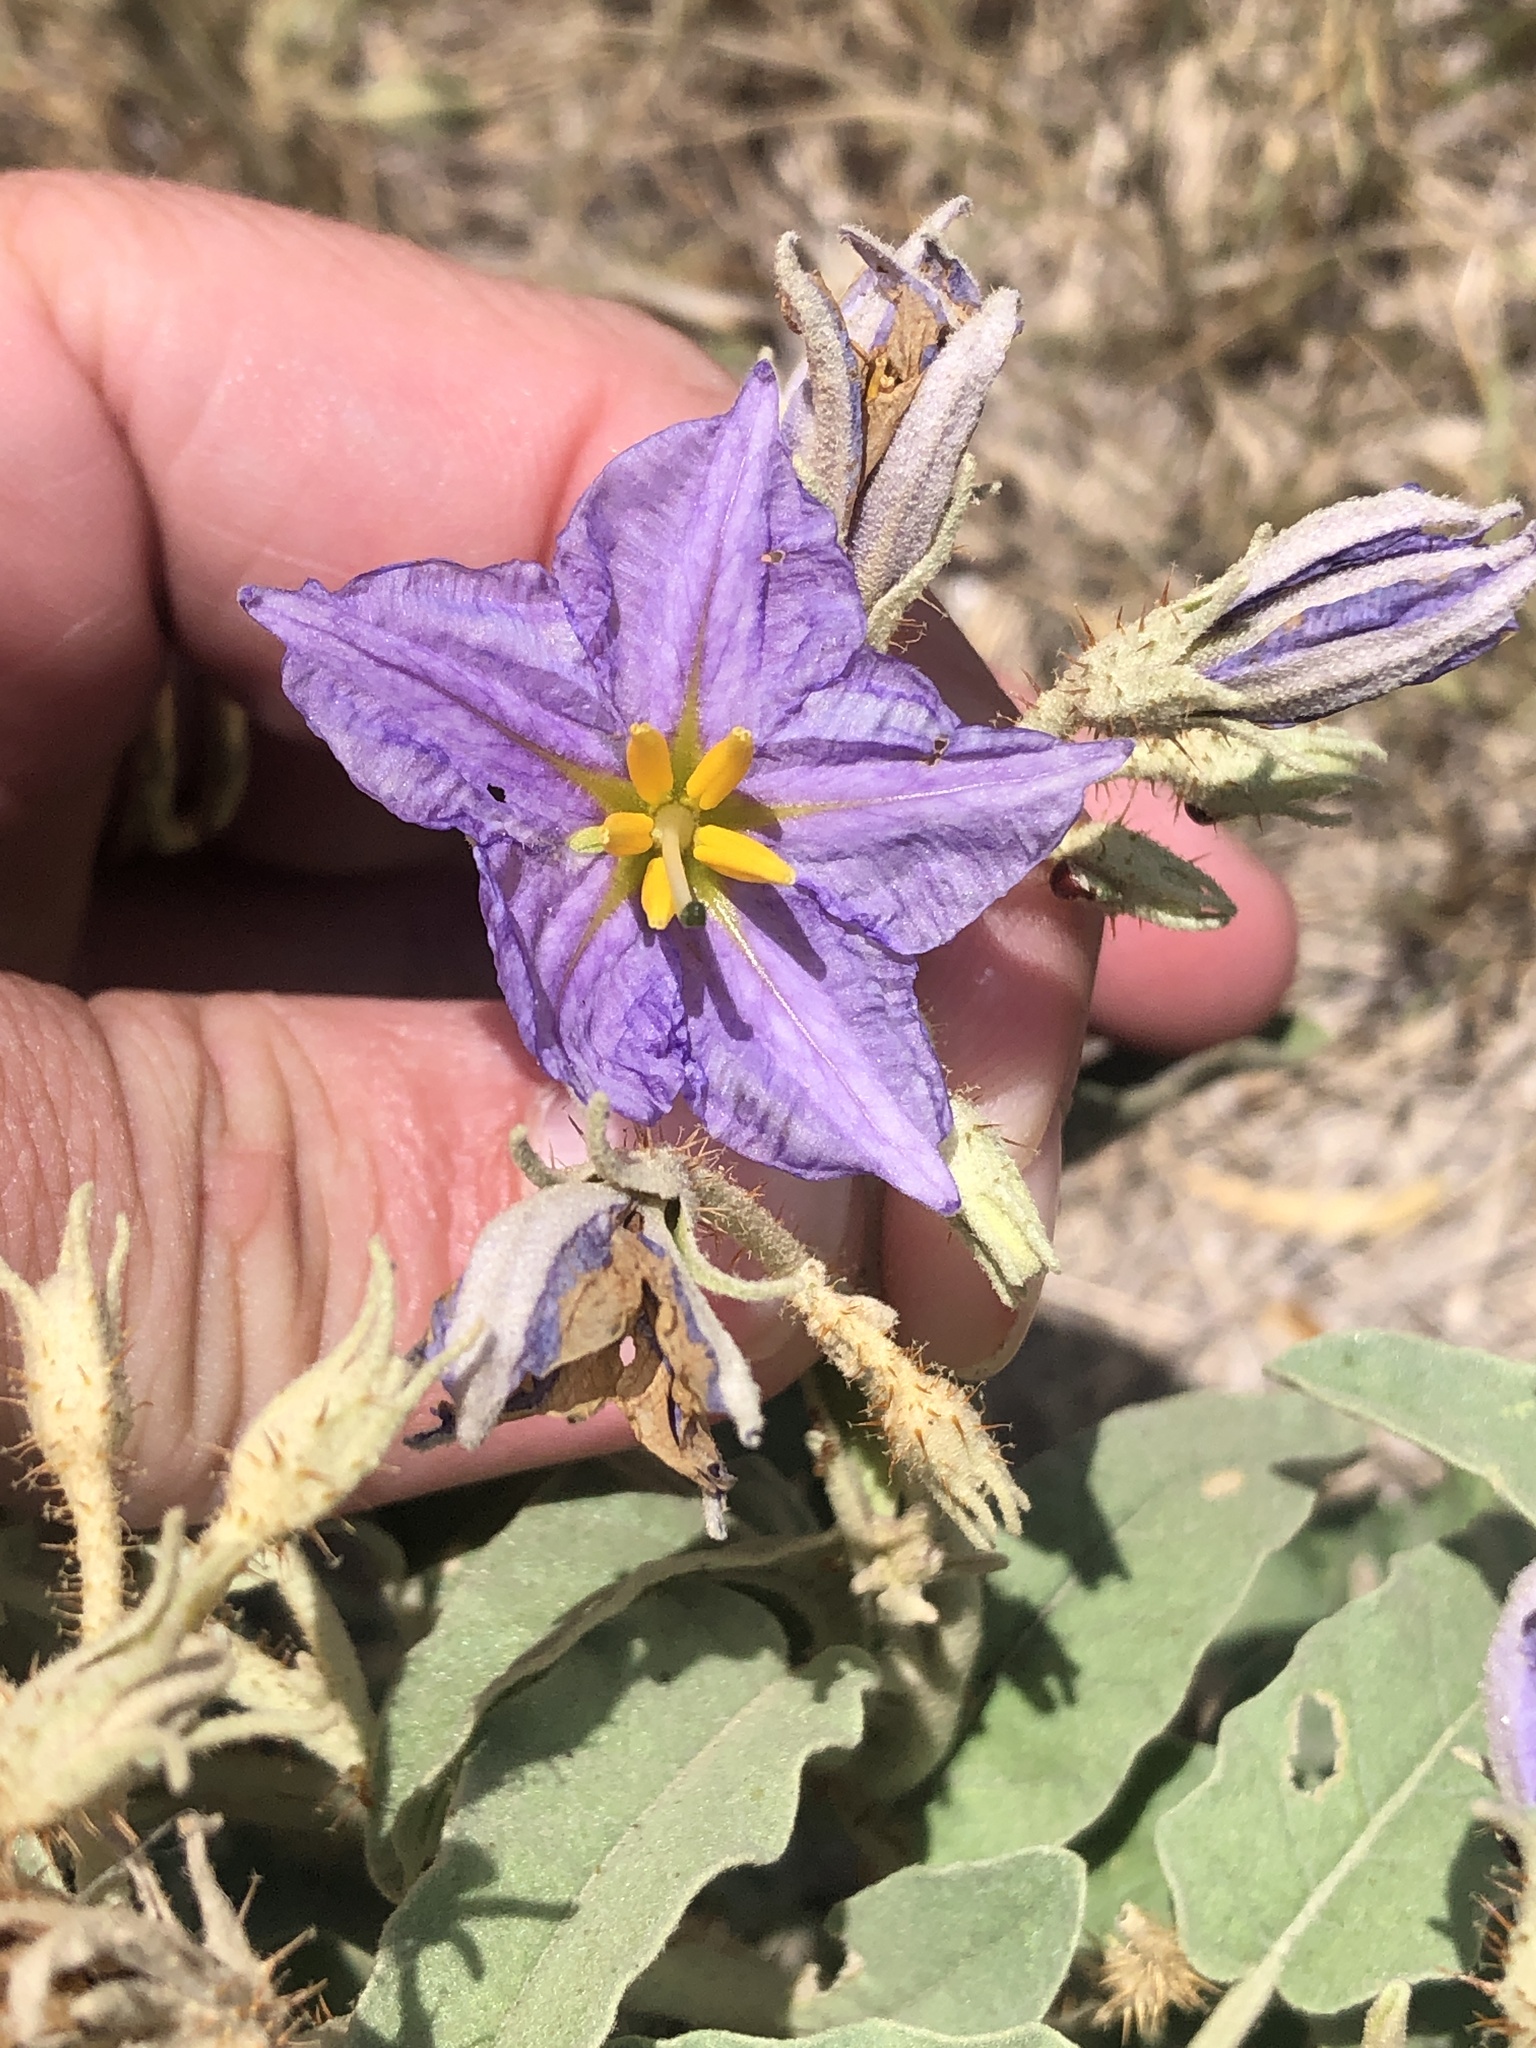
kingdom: Plantae
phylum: Tracheophyta
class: Magnoliopsida
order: Solanales
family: Solanaceae
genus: Solanum
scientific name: Solanum elaeagnifolium
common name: Silverleaf nightshade
